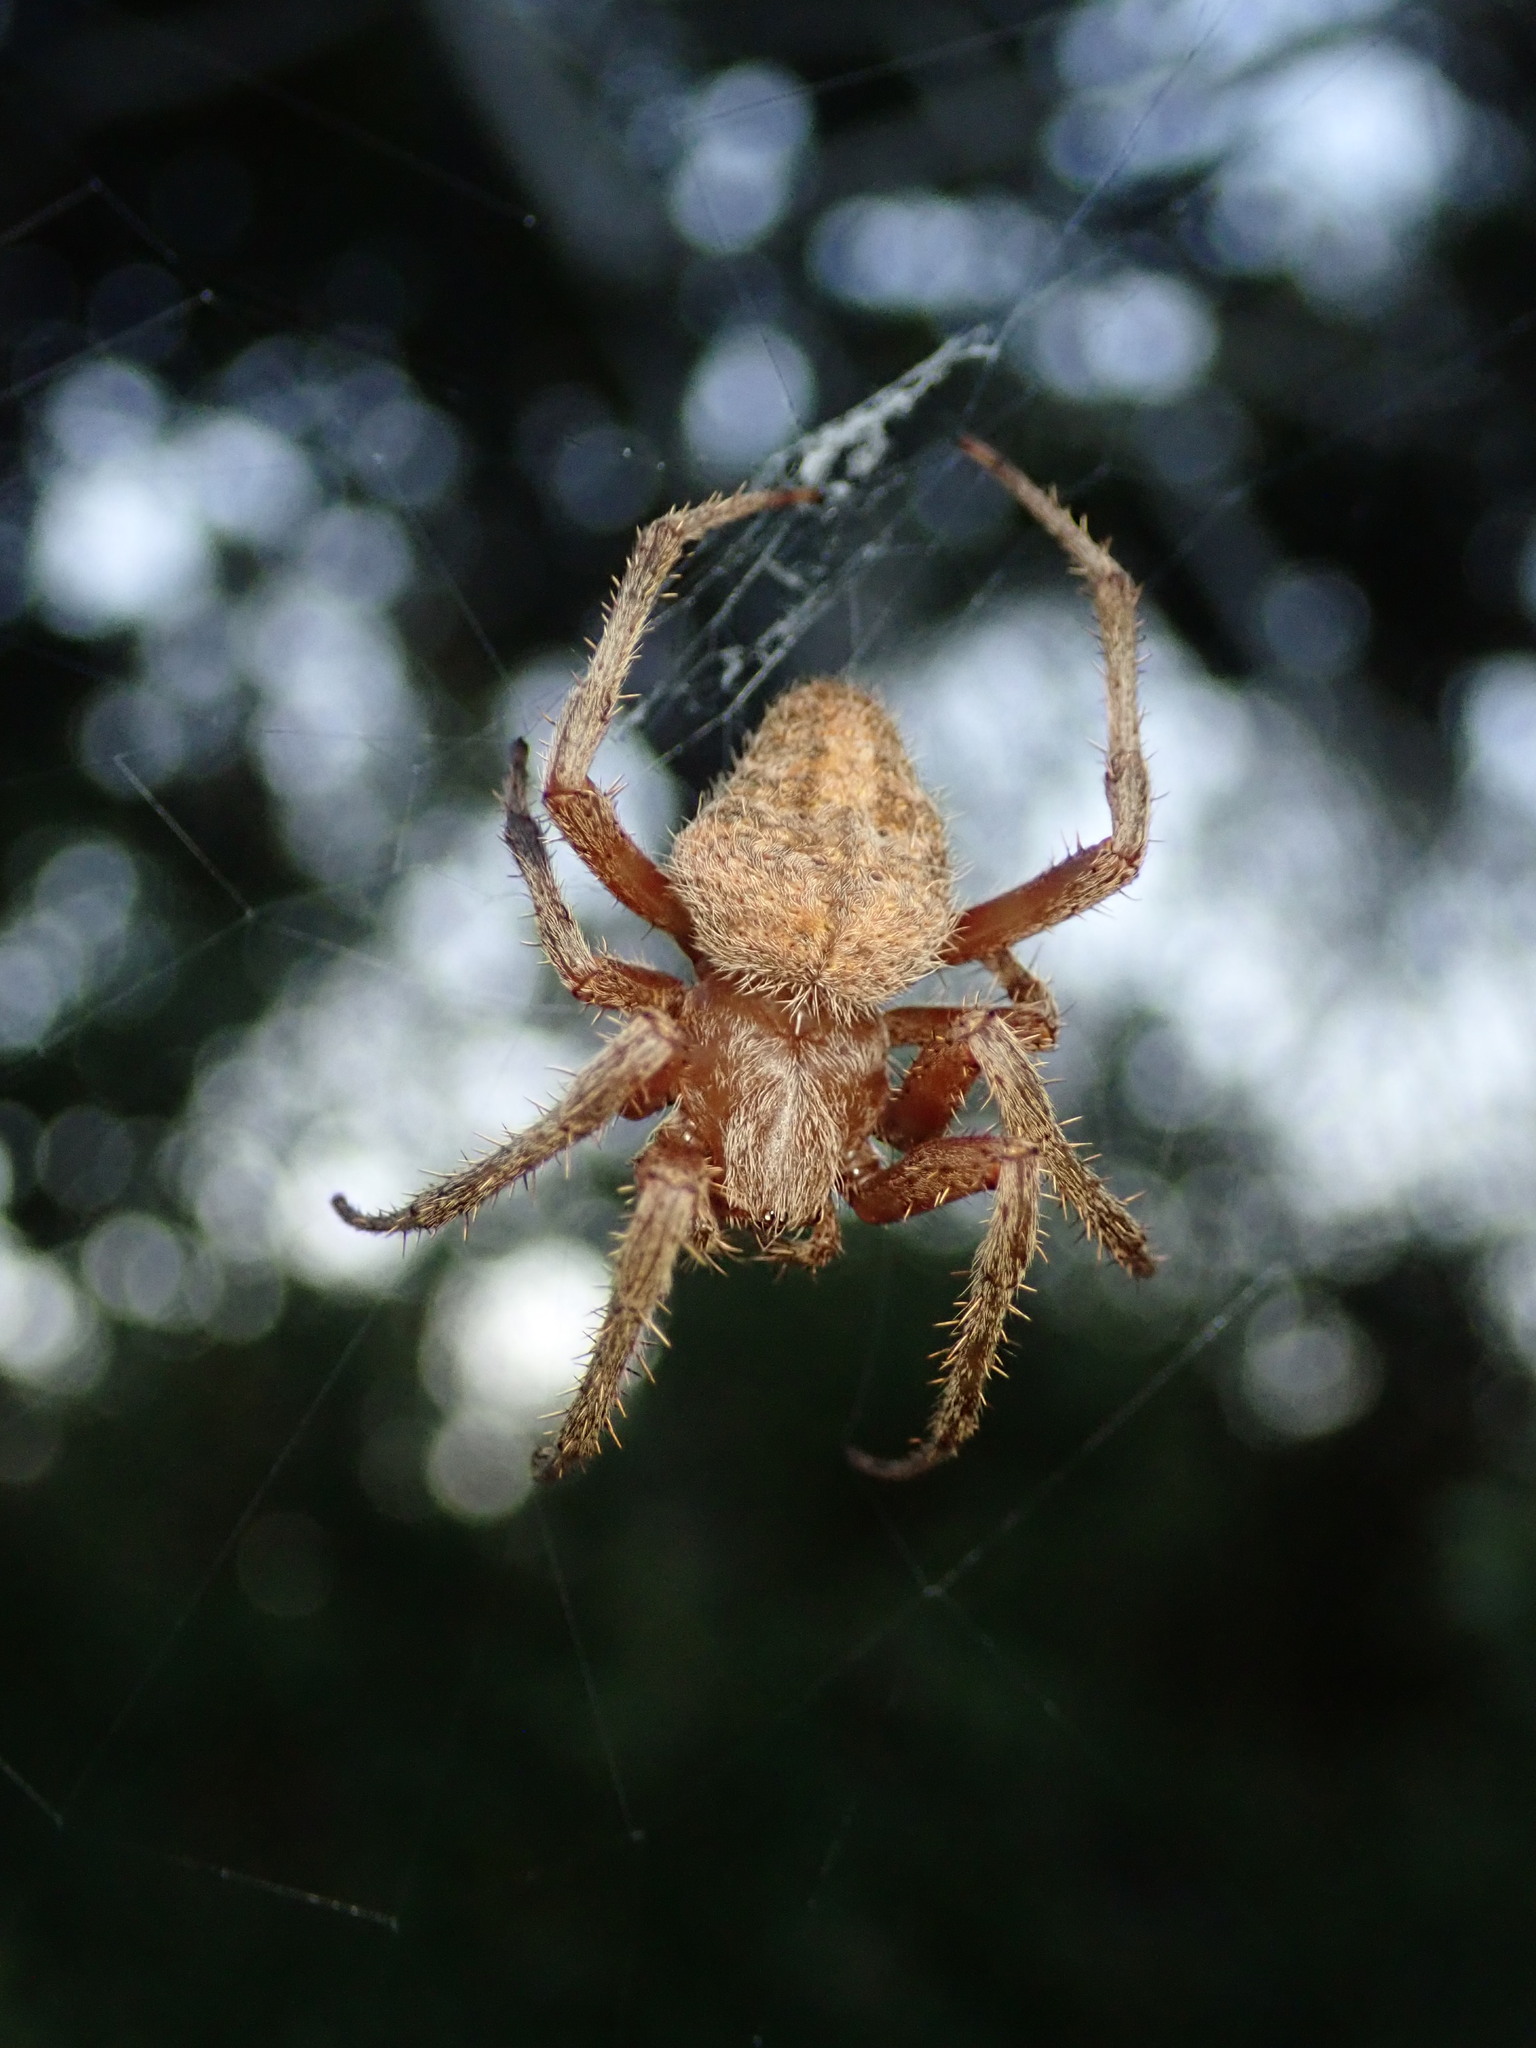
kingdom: Animalia
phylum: Arthropoda
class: Arachnida
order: Araneae
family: Araneidae
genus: Neoscona
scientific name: Neoscona crucifera
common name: Spotted orbweaver
